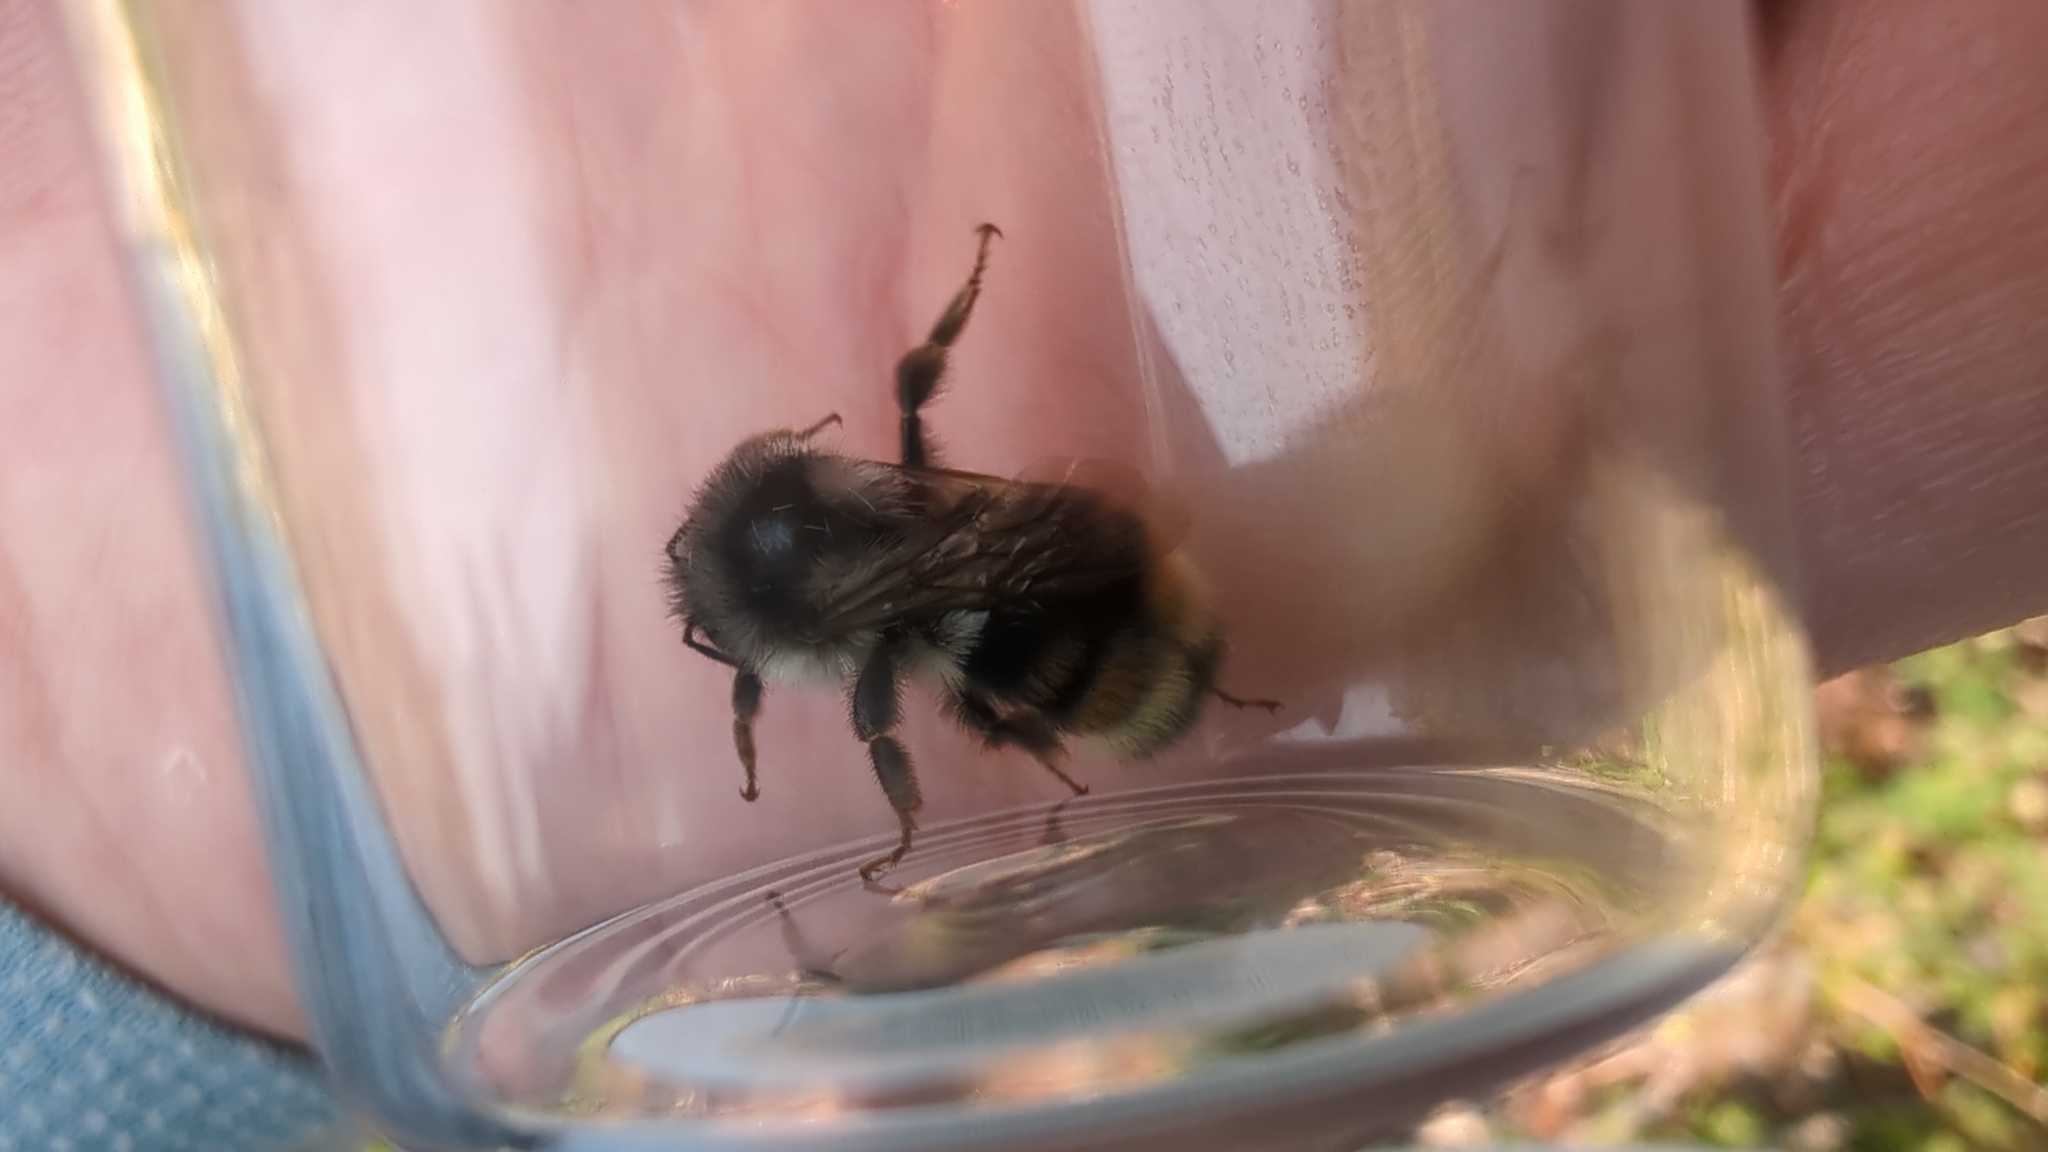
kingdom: Animalia
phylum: Arthropoda
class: Insecta
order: Hymenoptera
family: Apidae
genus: Bombus
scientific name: Bombus vancouverensis
